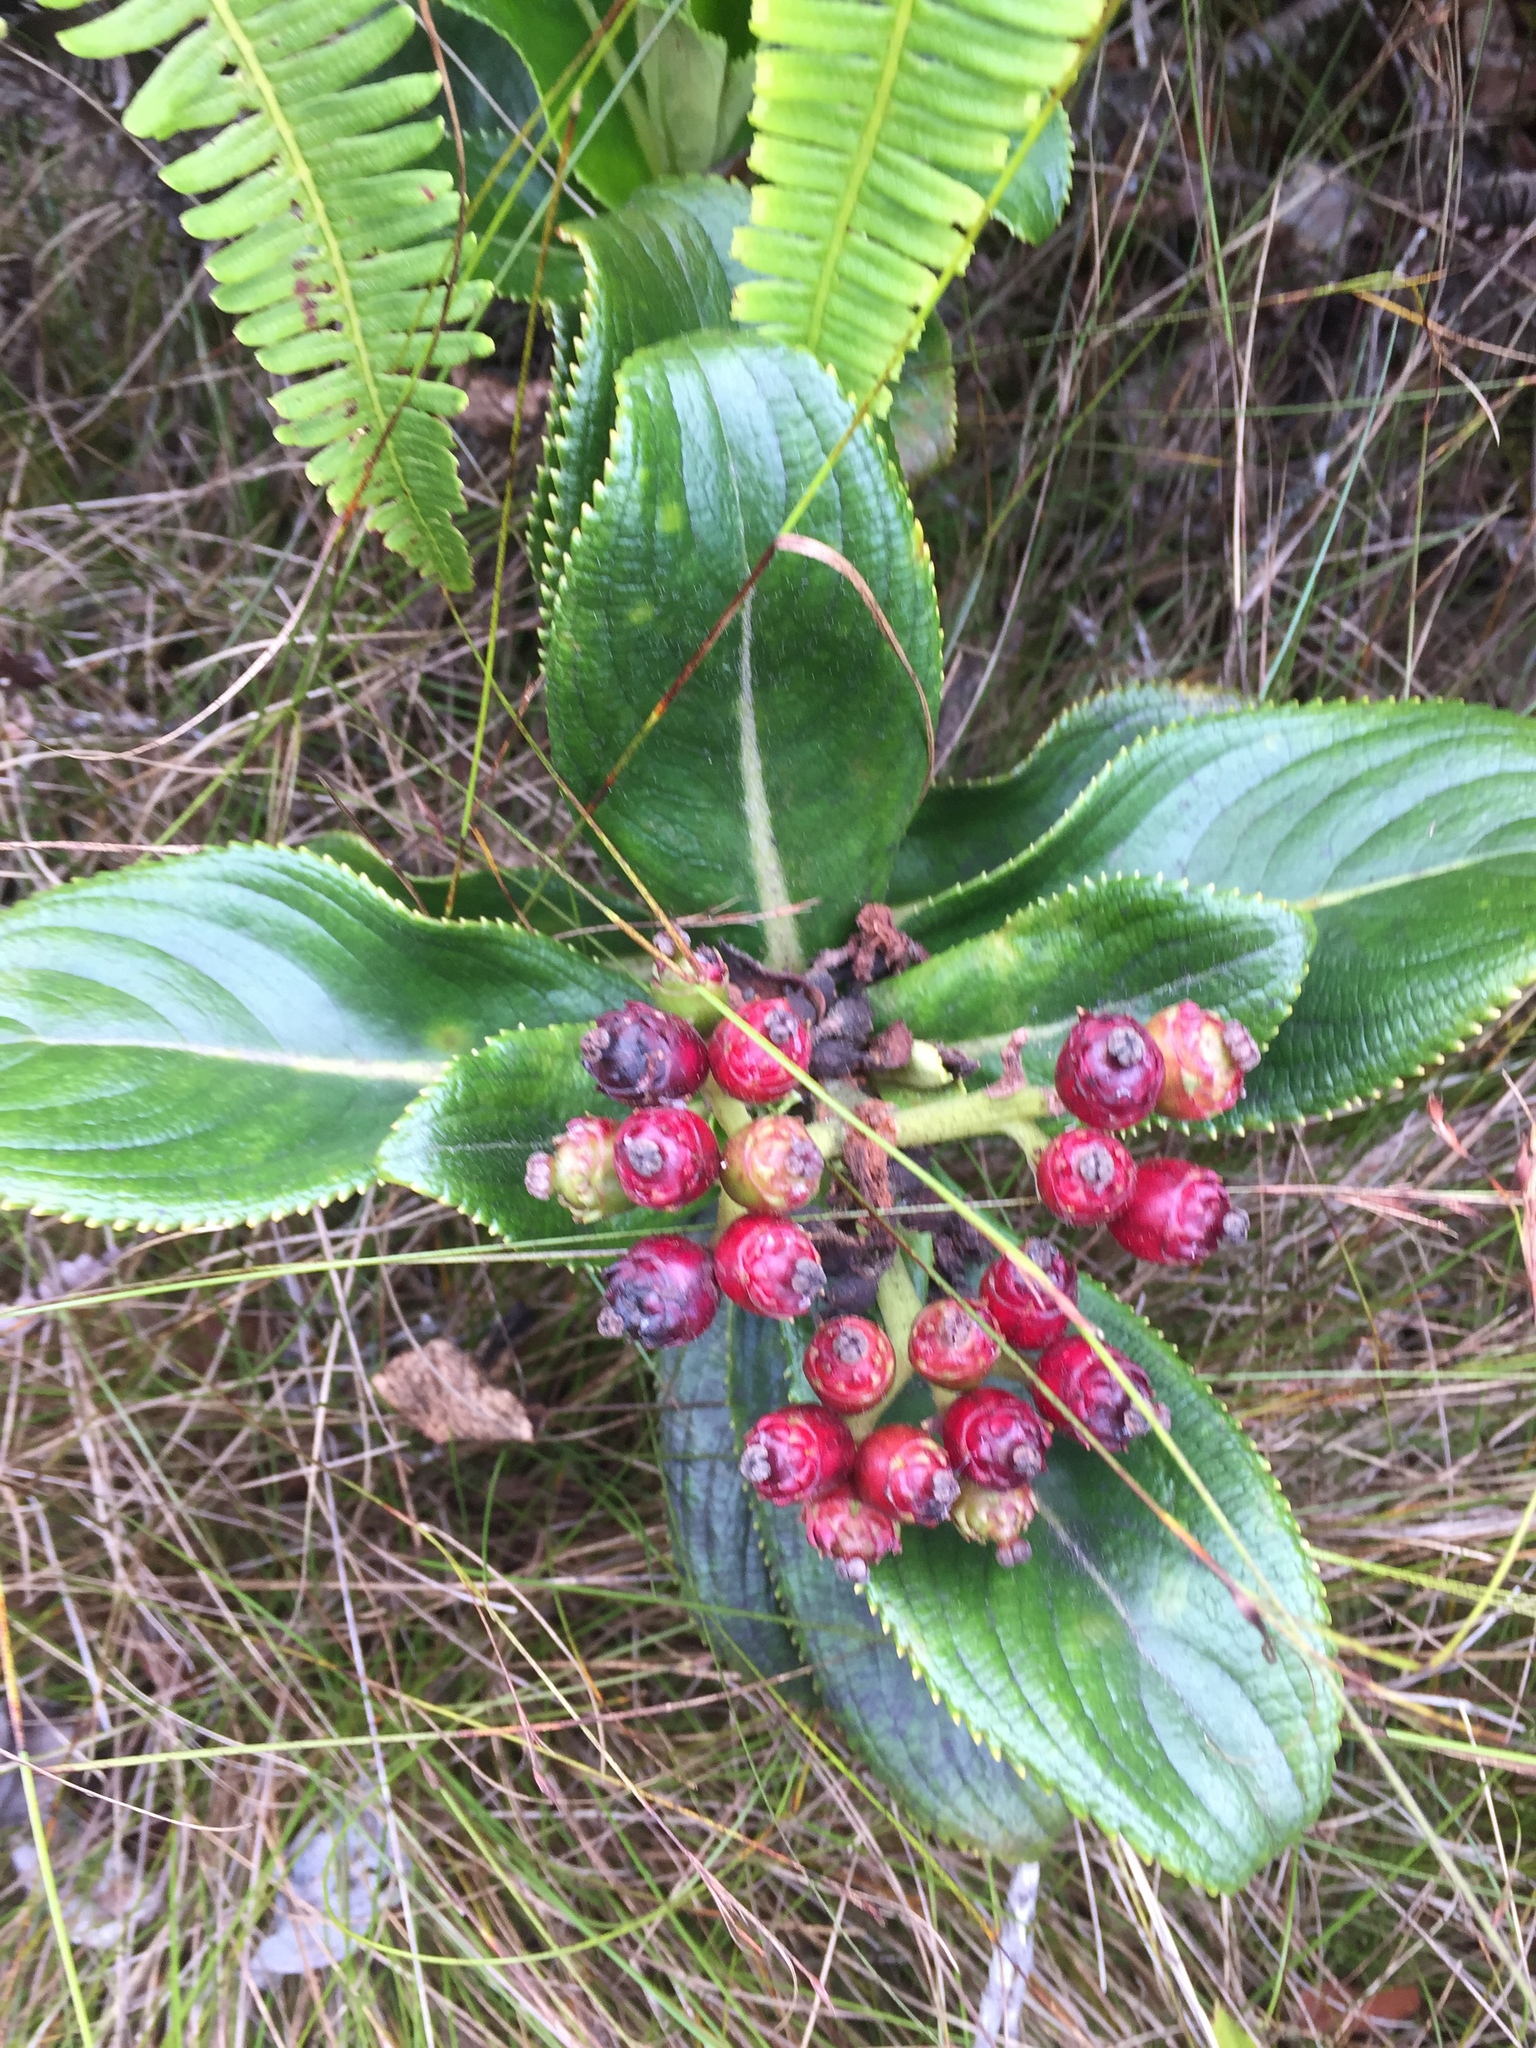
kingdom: Plantae
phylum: Tracheophyta
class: Magnoliopsida
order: Cornales
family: Hydrangeaceae
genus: Hydrangea
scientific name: Hydrangea arguta
